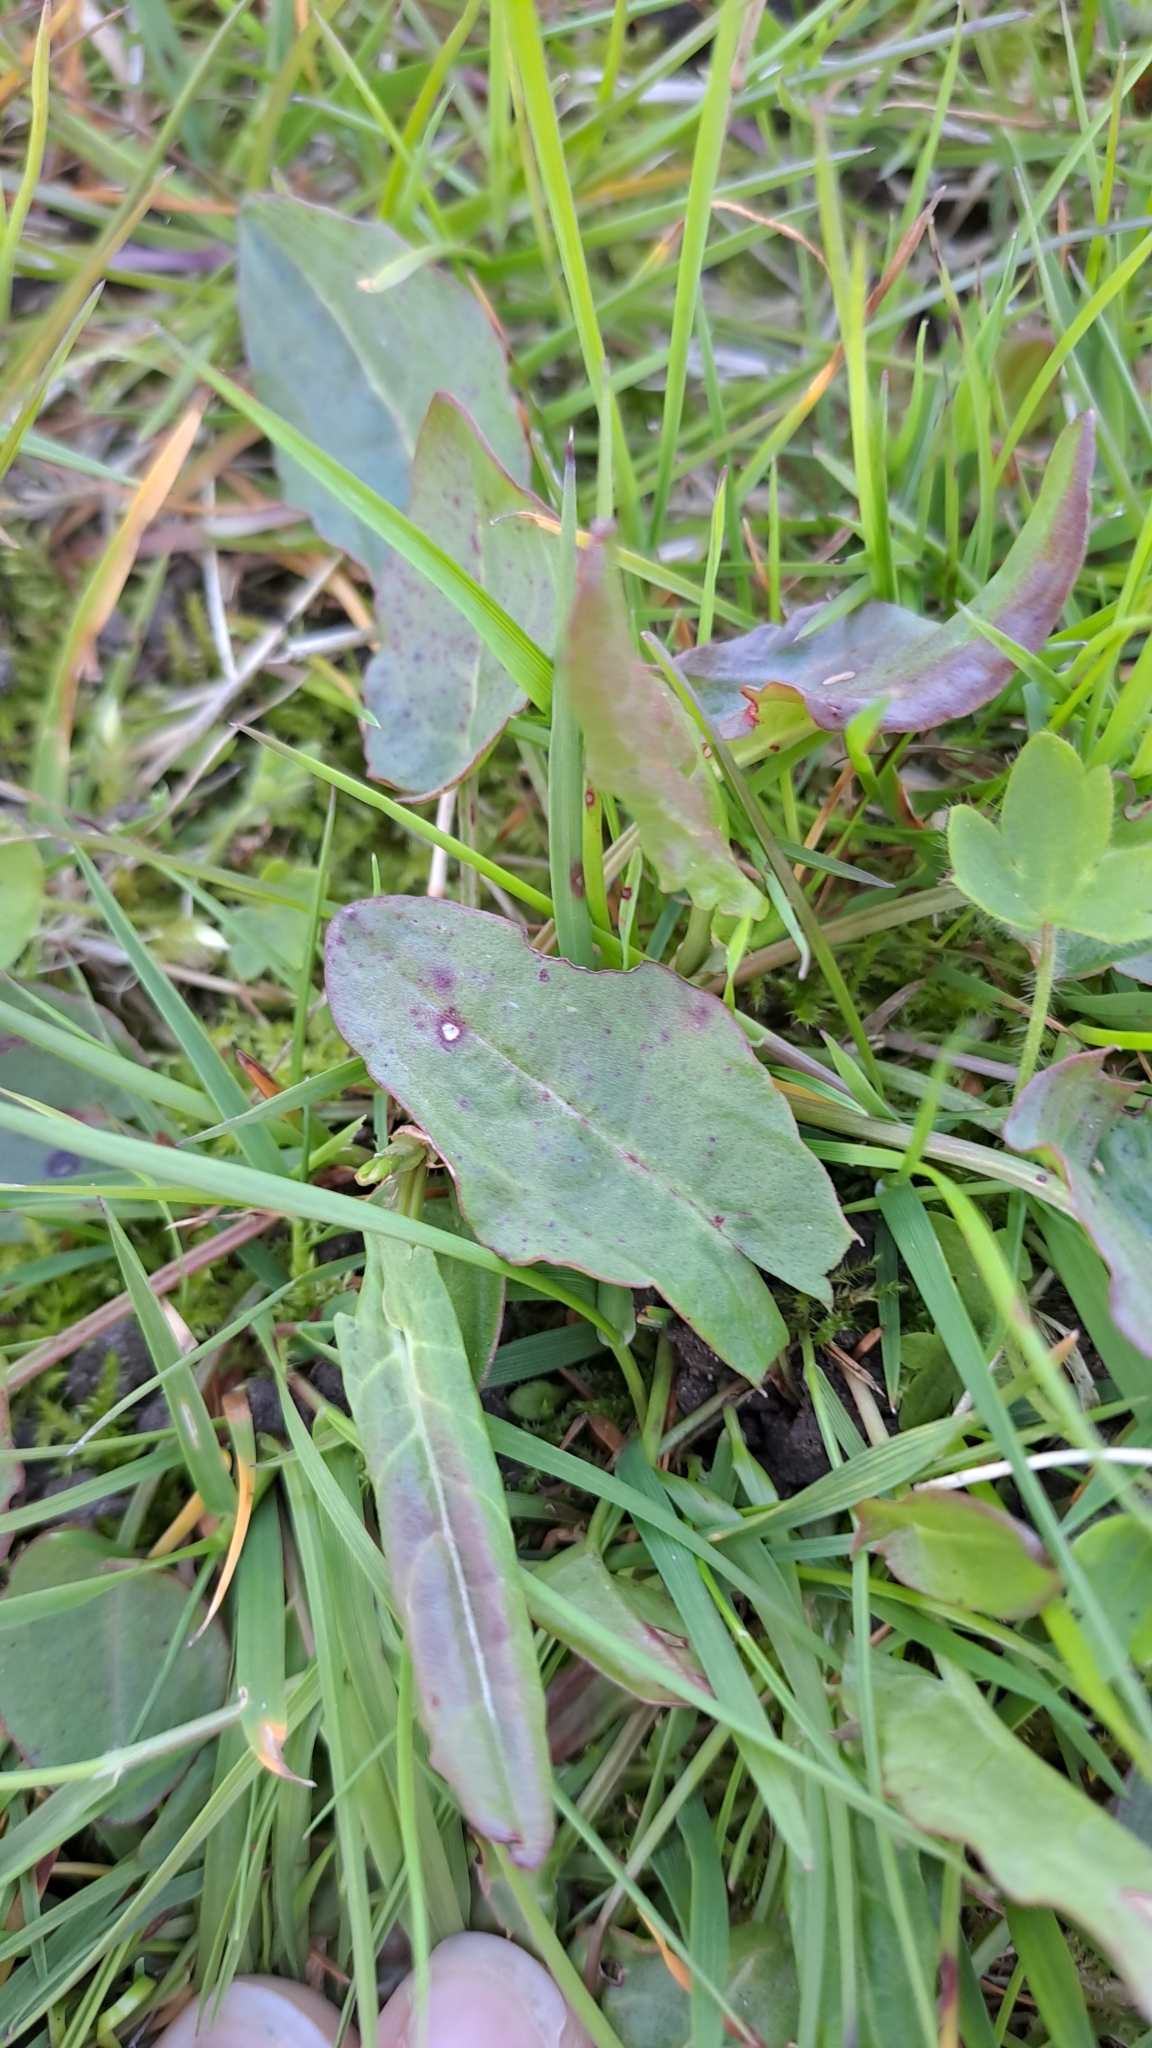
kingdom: Plantae
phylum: Tracheophyta
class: Magnoliopsida
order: Caryophyllales
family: Polygonaceae
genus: Rumex
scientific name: Rumex acetosa
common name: Garden sorrel
